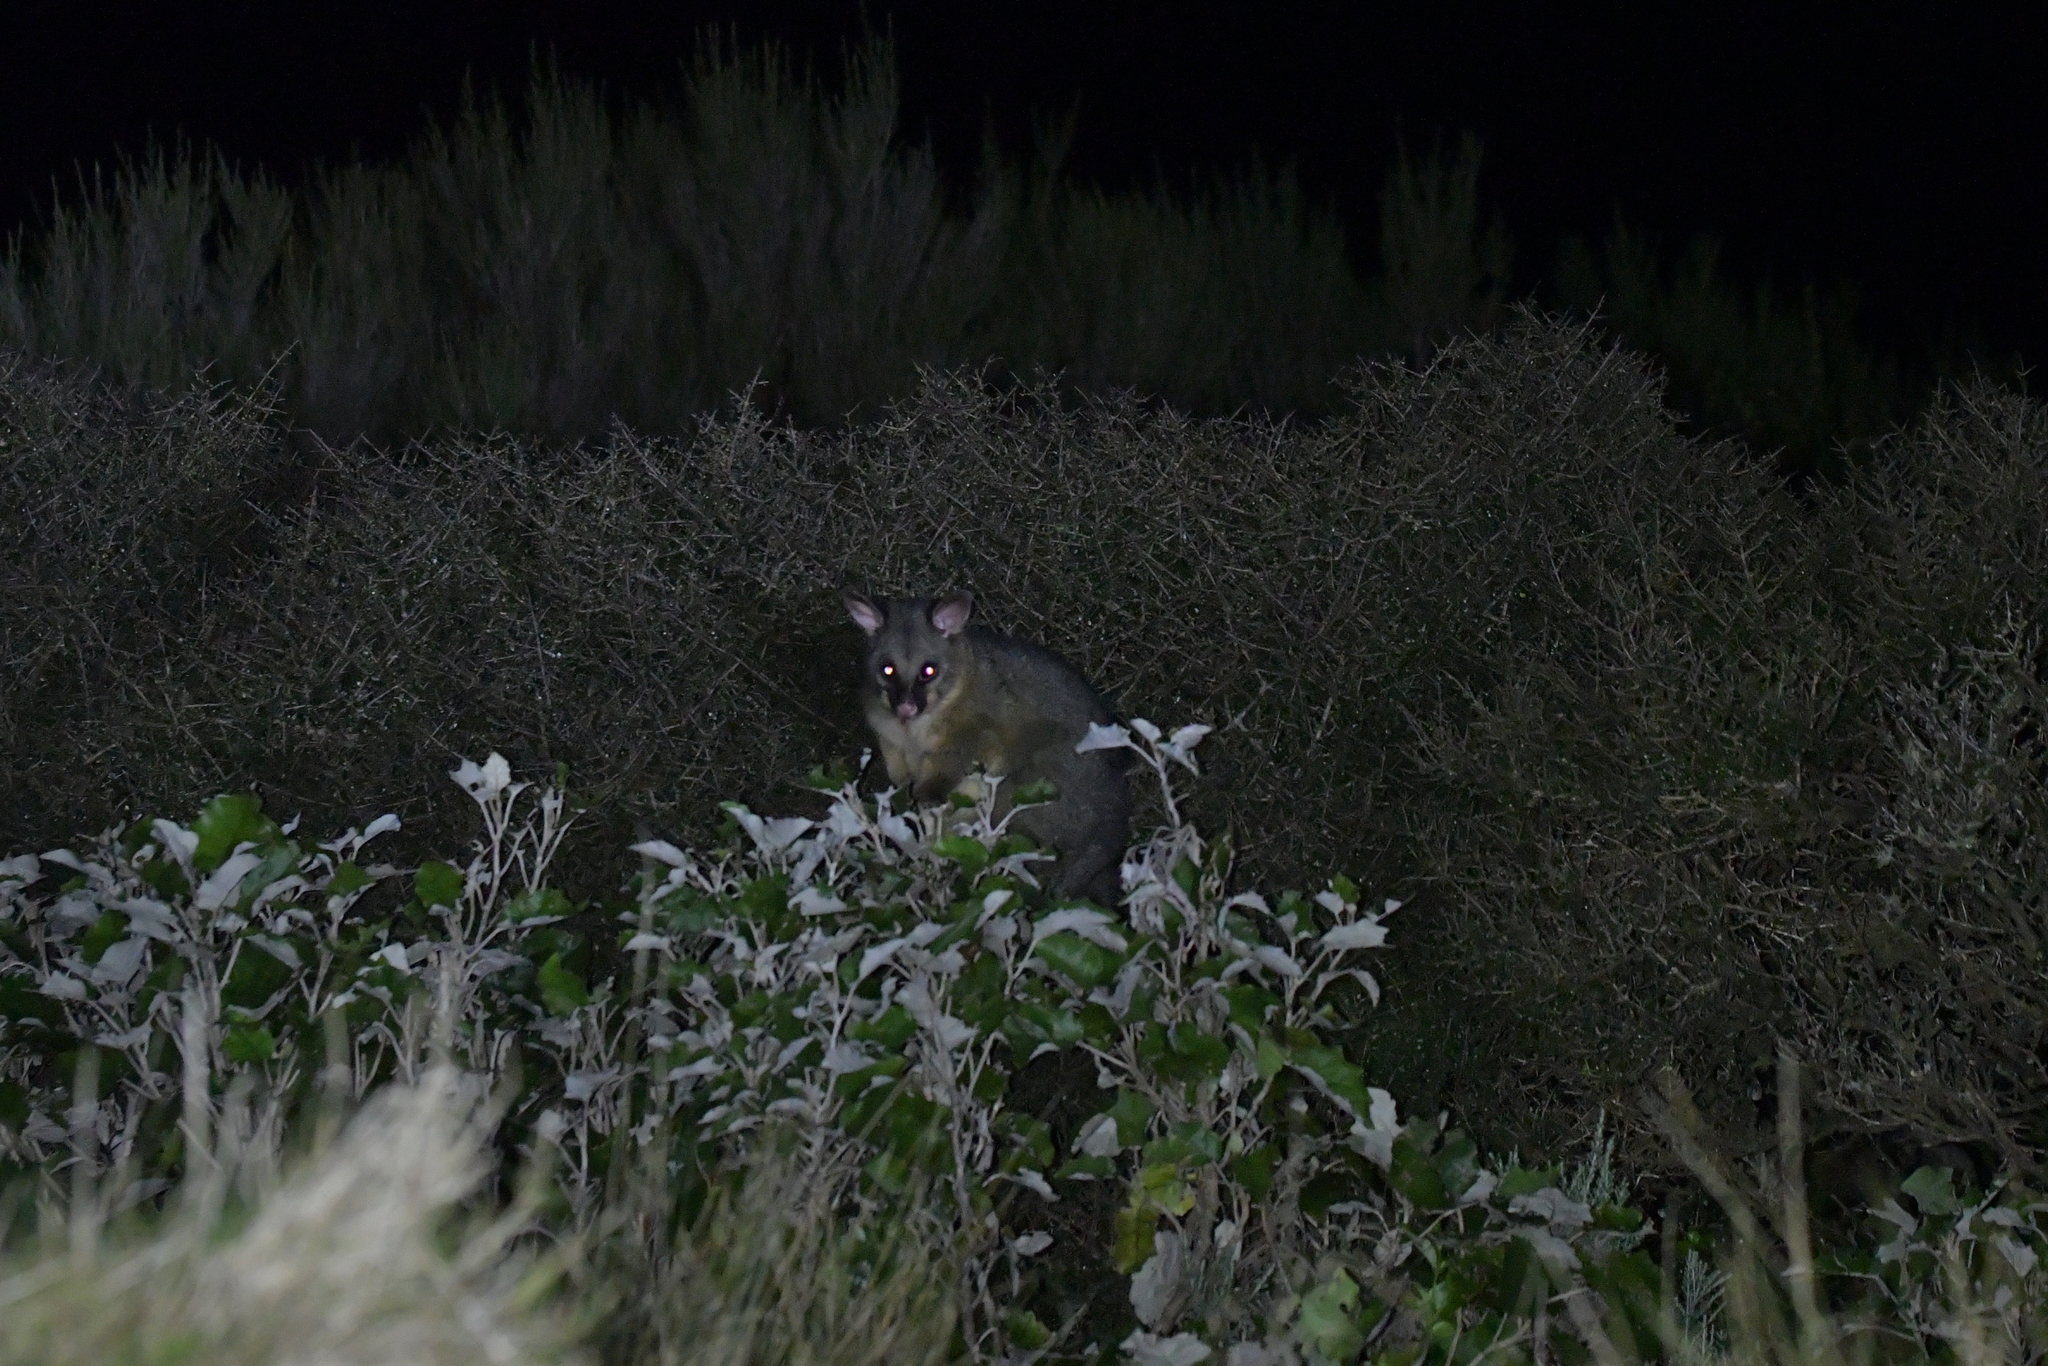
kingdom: Animalia
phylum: Chordata
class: Mammalia
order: Diprotodontia
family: Phalangeridae
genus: Trichosurus
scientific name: Trichosurus vulpecula
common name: Common brushtail
